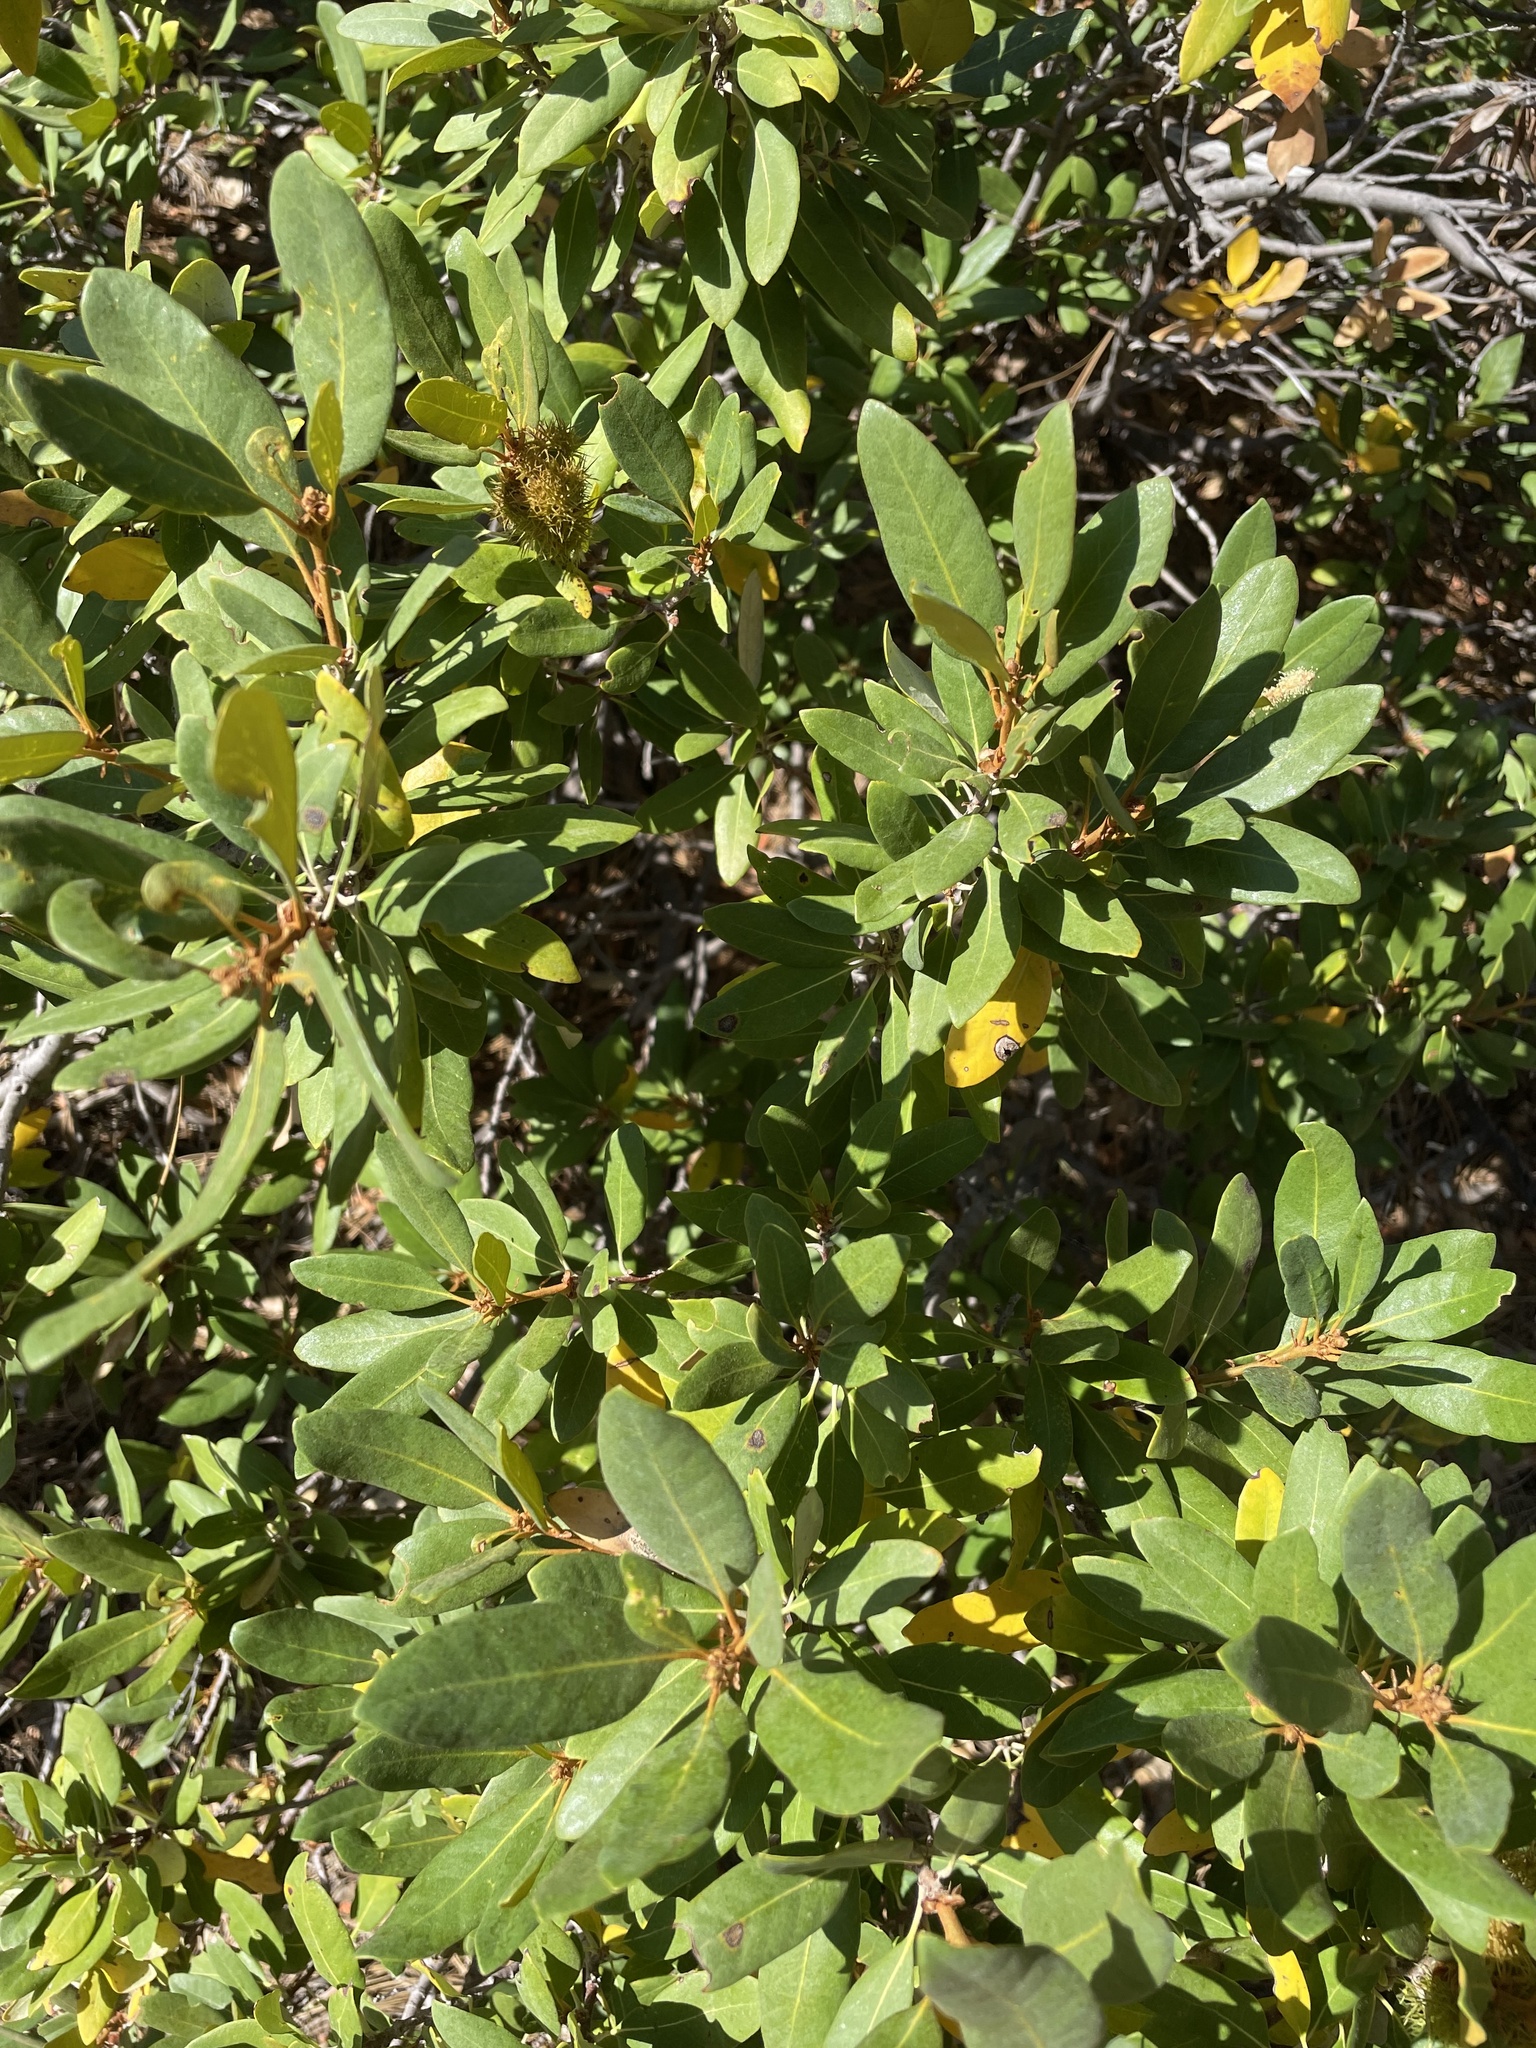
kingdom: Plantae
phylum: Tracheophyta
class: Magnoliopsida
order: Fagales
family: Fagaceae
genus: Chrysolepis
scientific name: Chrysolepis sempervirens
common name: Bush chinquapin
